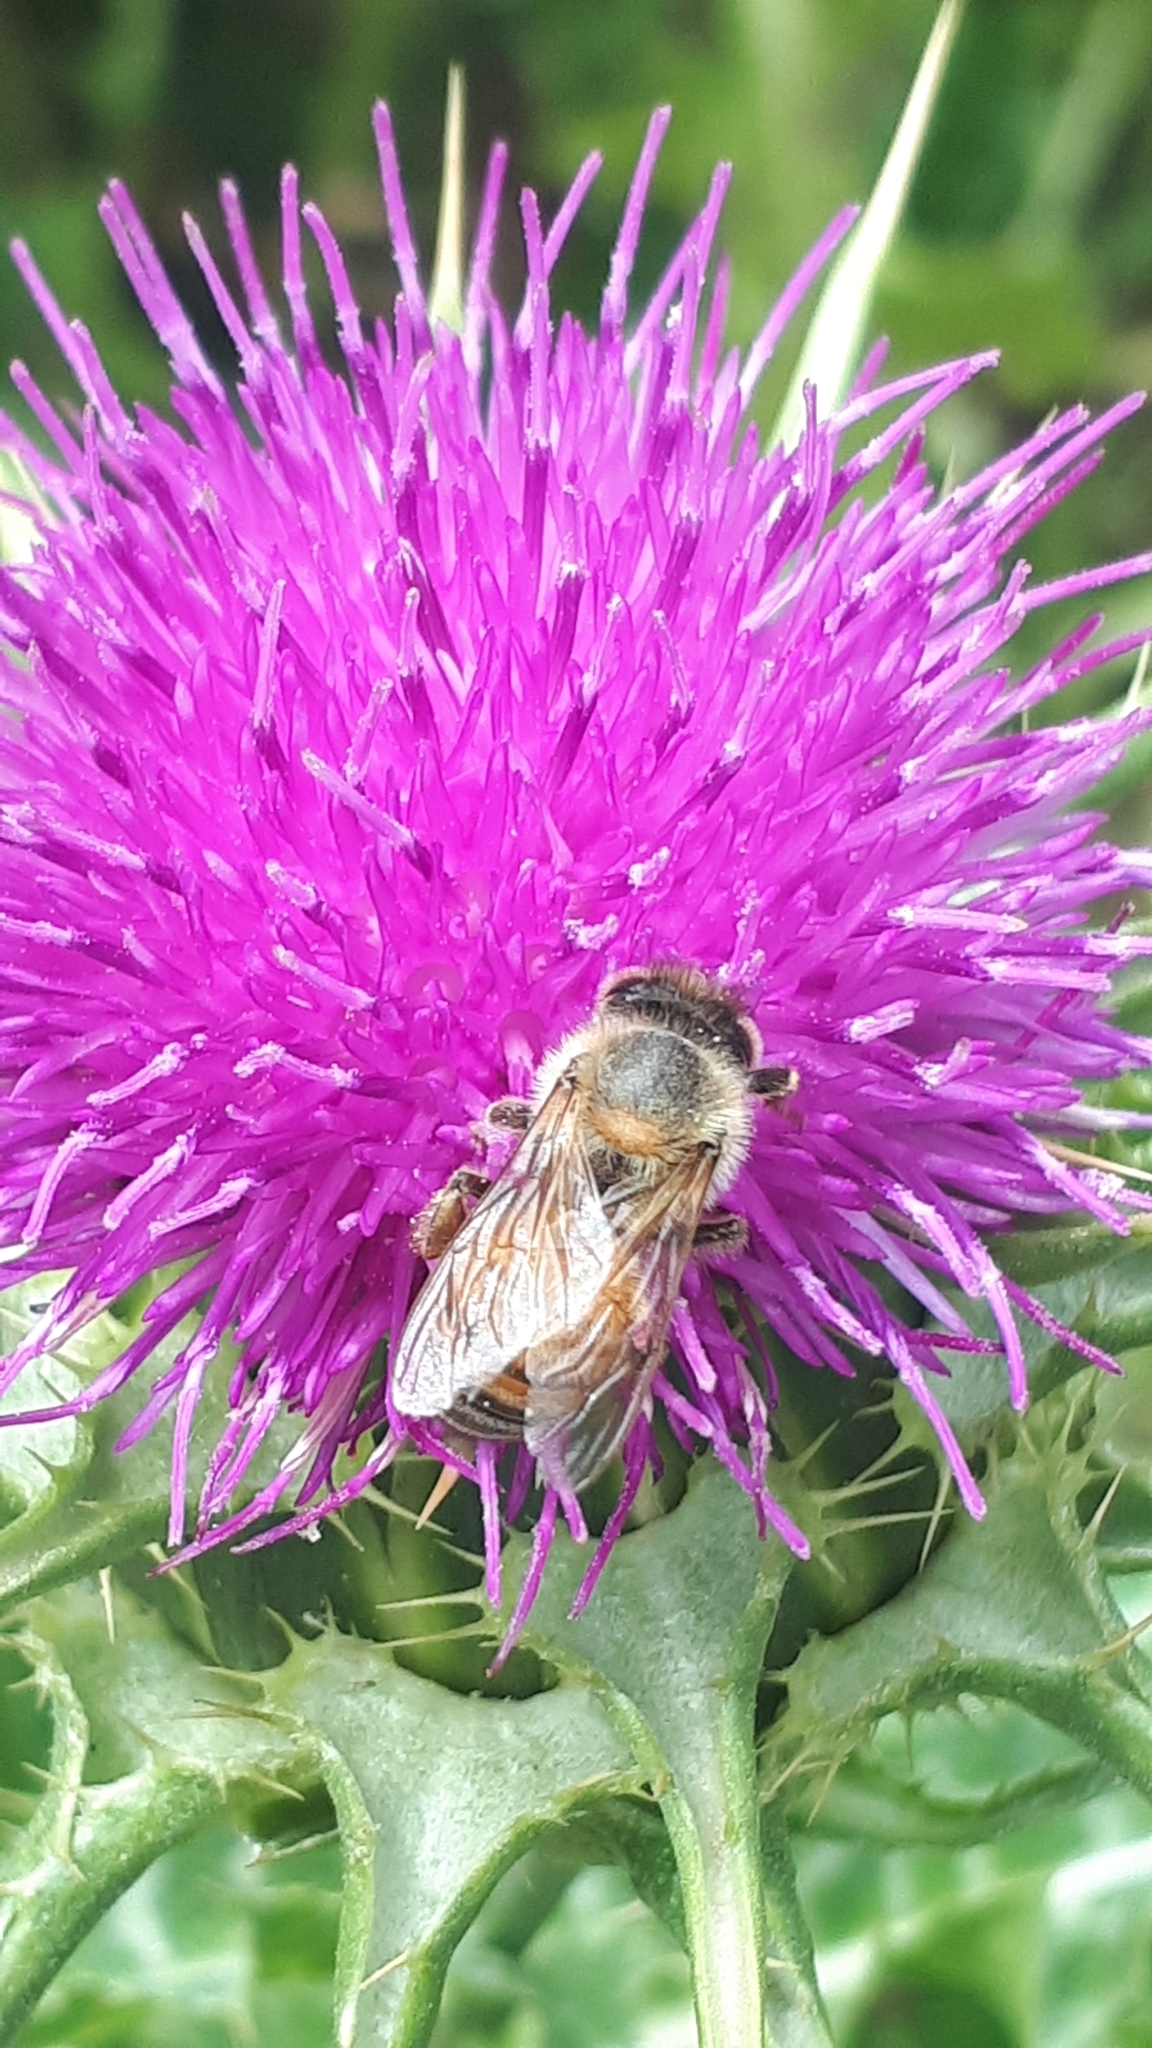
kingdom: Animalia
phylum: Arthropoda
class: Insecta
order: Hymenoptera
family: Apidae
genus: Apis
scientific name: Apis mellifera
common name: Honey bee
